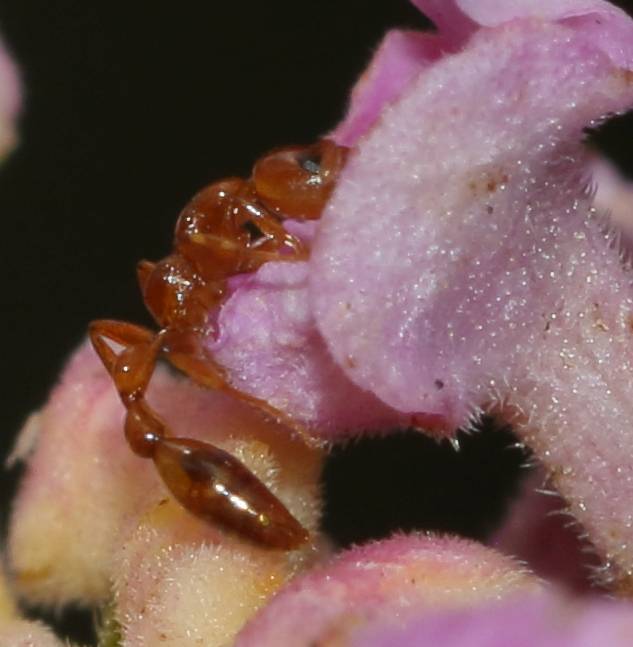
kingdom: Animalia
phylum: Arthropoda
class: Insecta
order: Hymenoptera
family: Formicidae
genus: Tetraponera
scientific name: Tetraponera natalensis
